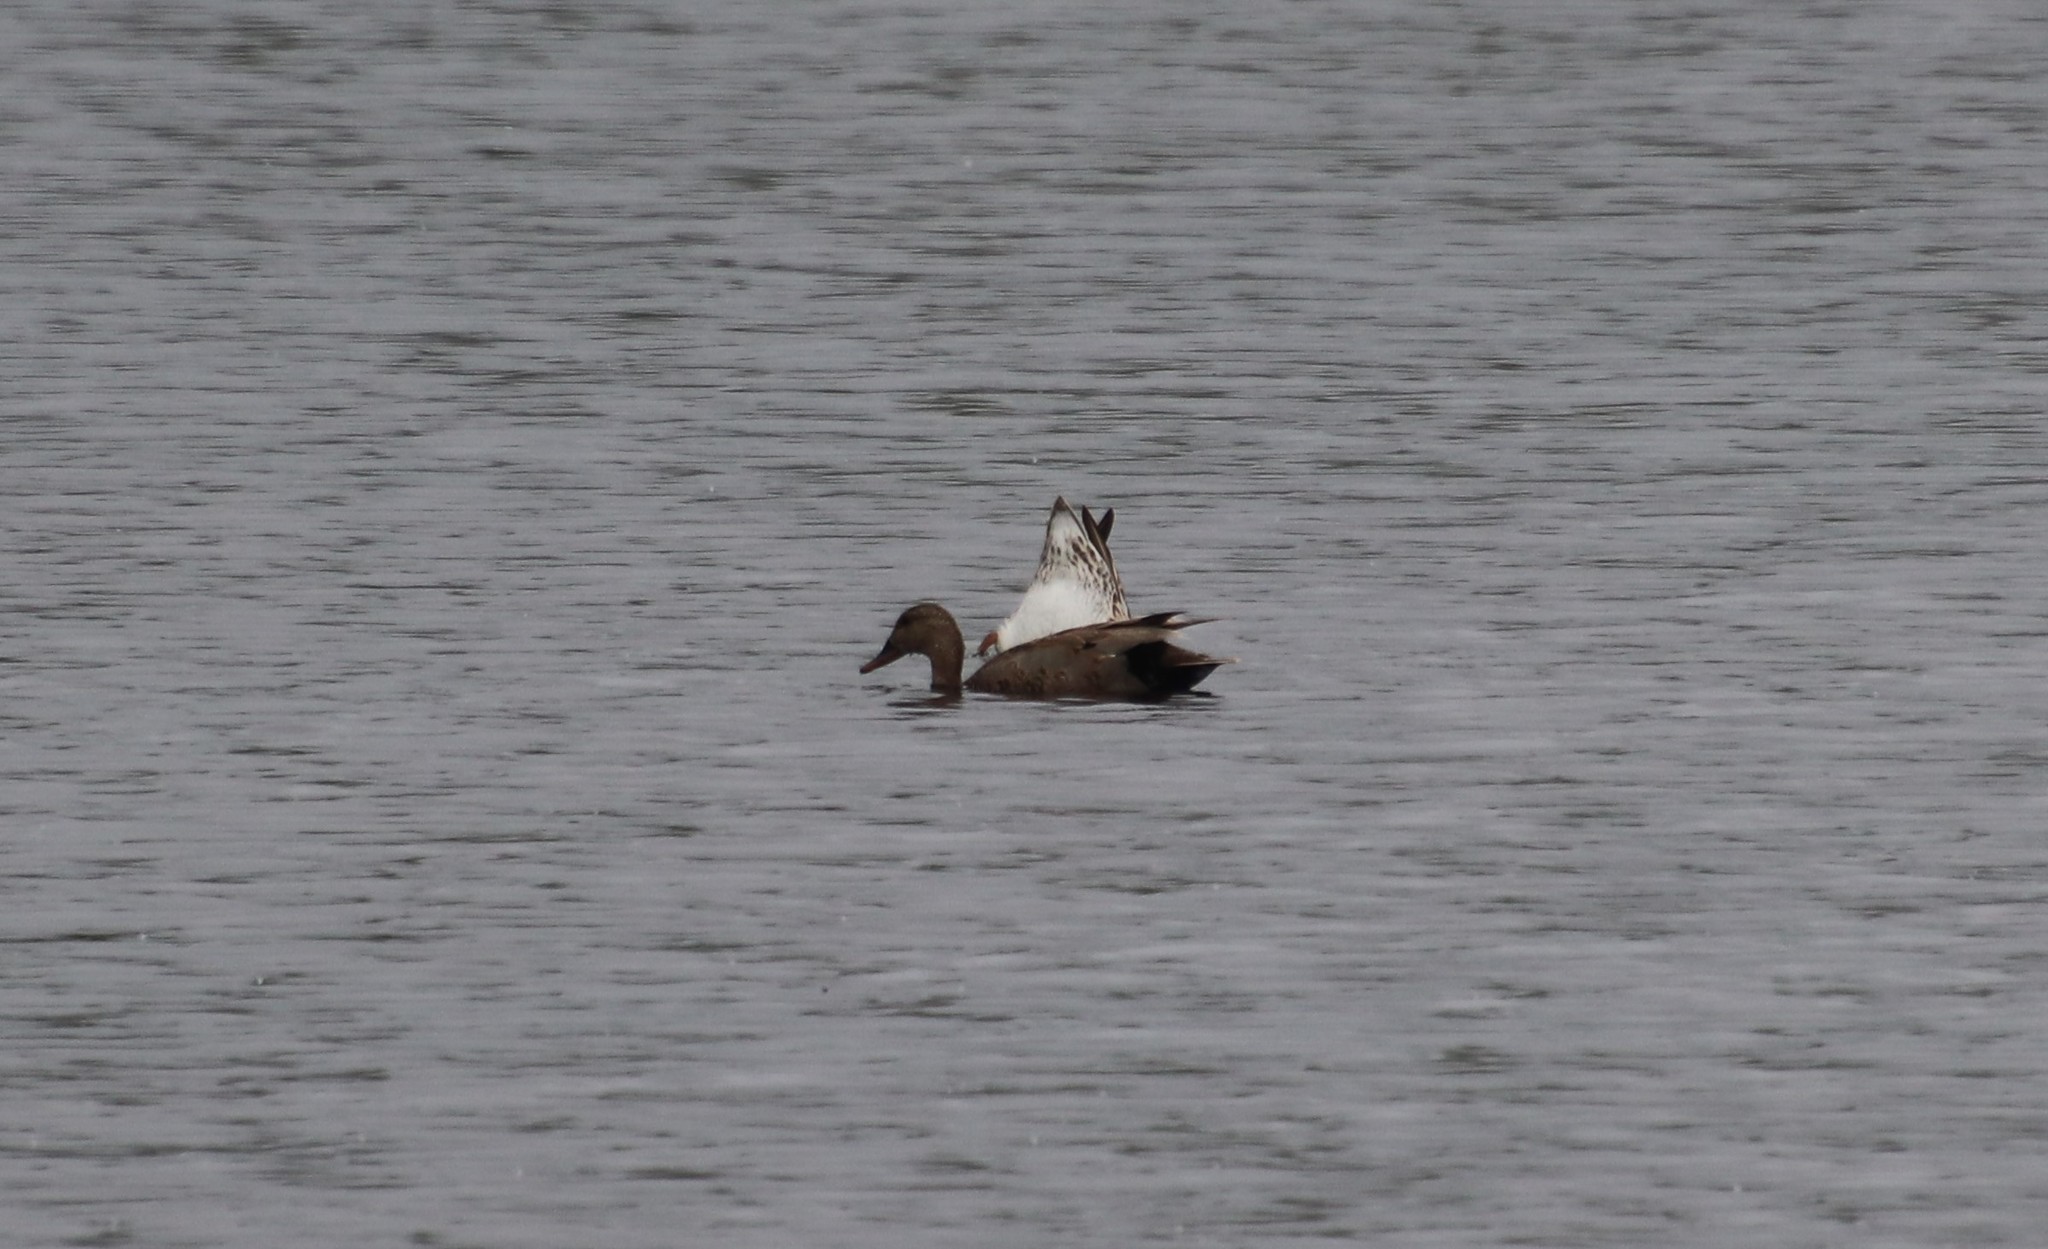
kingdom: Animalia
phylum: Chordata
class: Aves
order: Anseriformes
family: Anatidae
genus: Mareca
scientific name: Mareca strepera
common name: Gadwall
